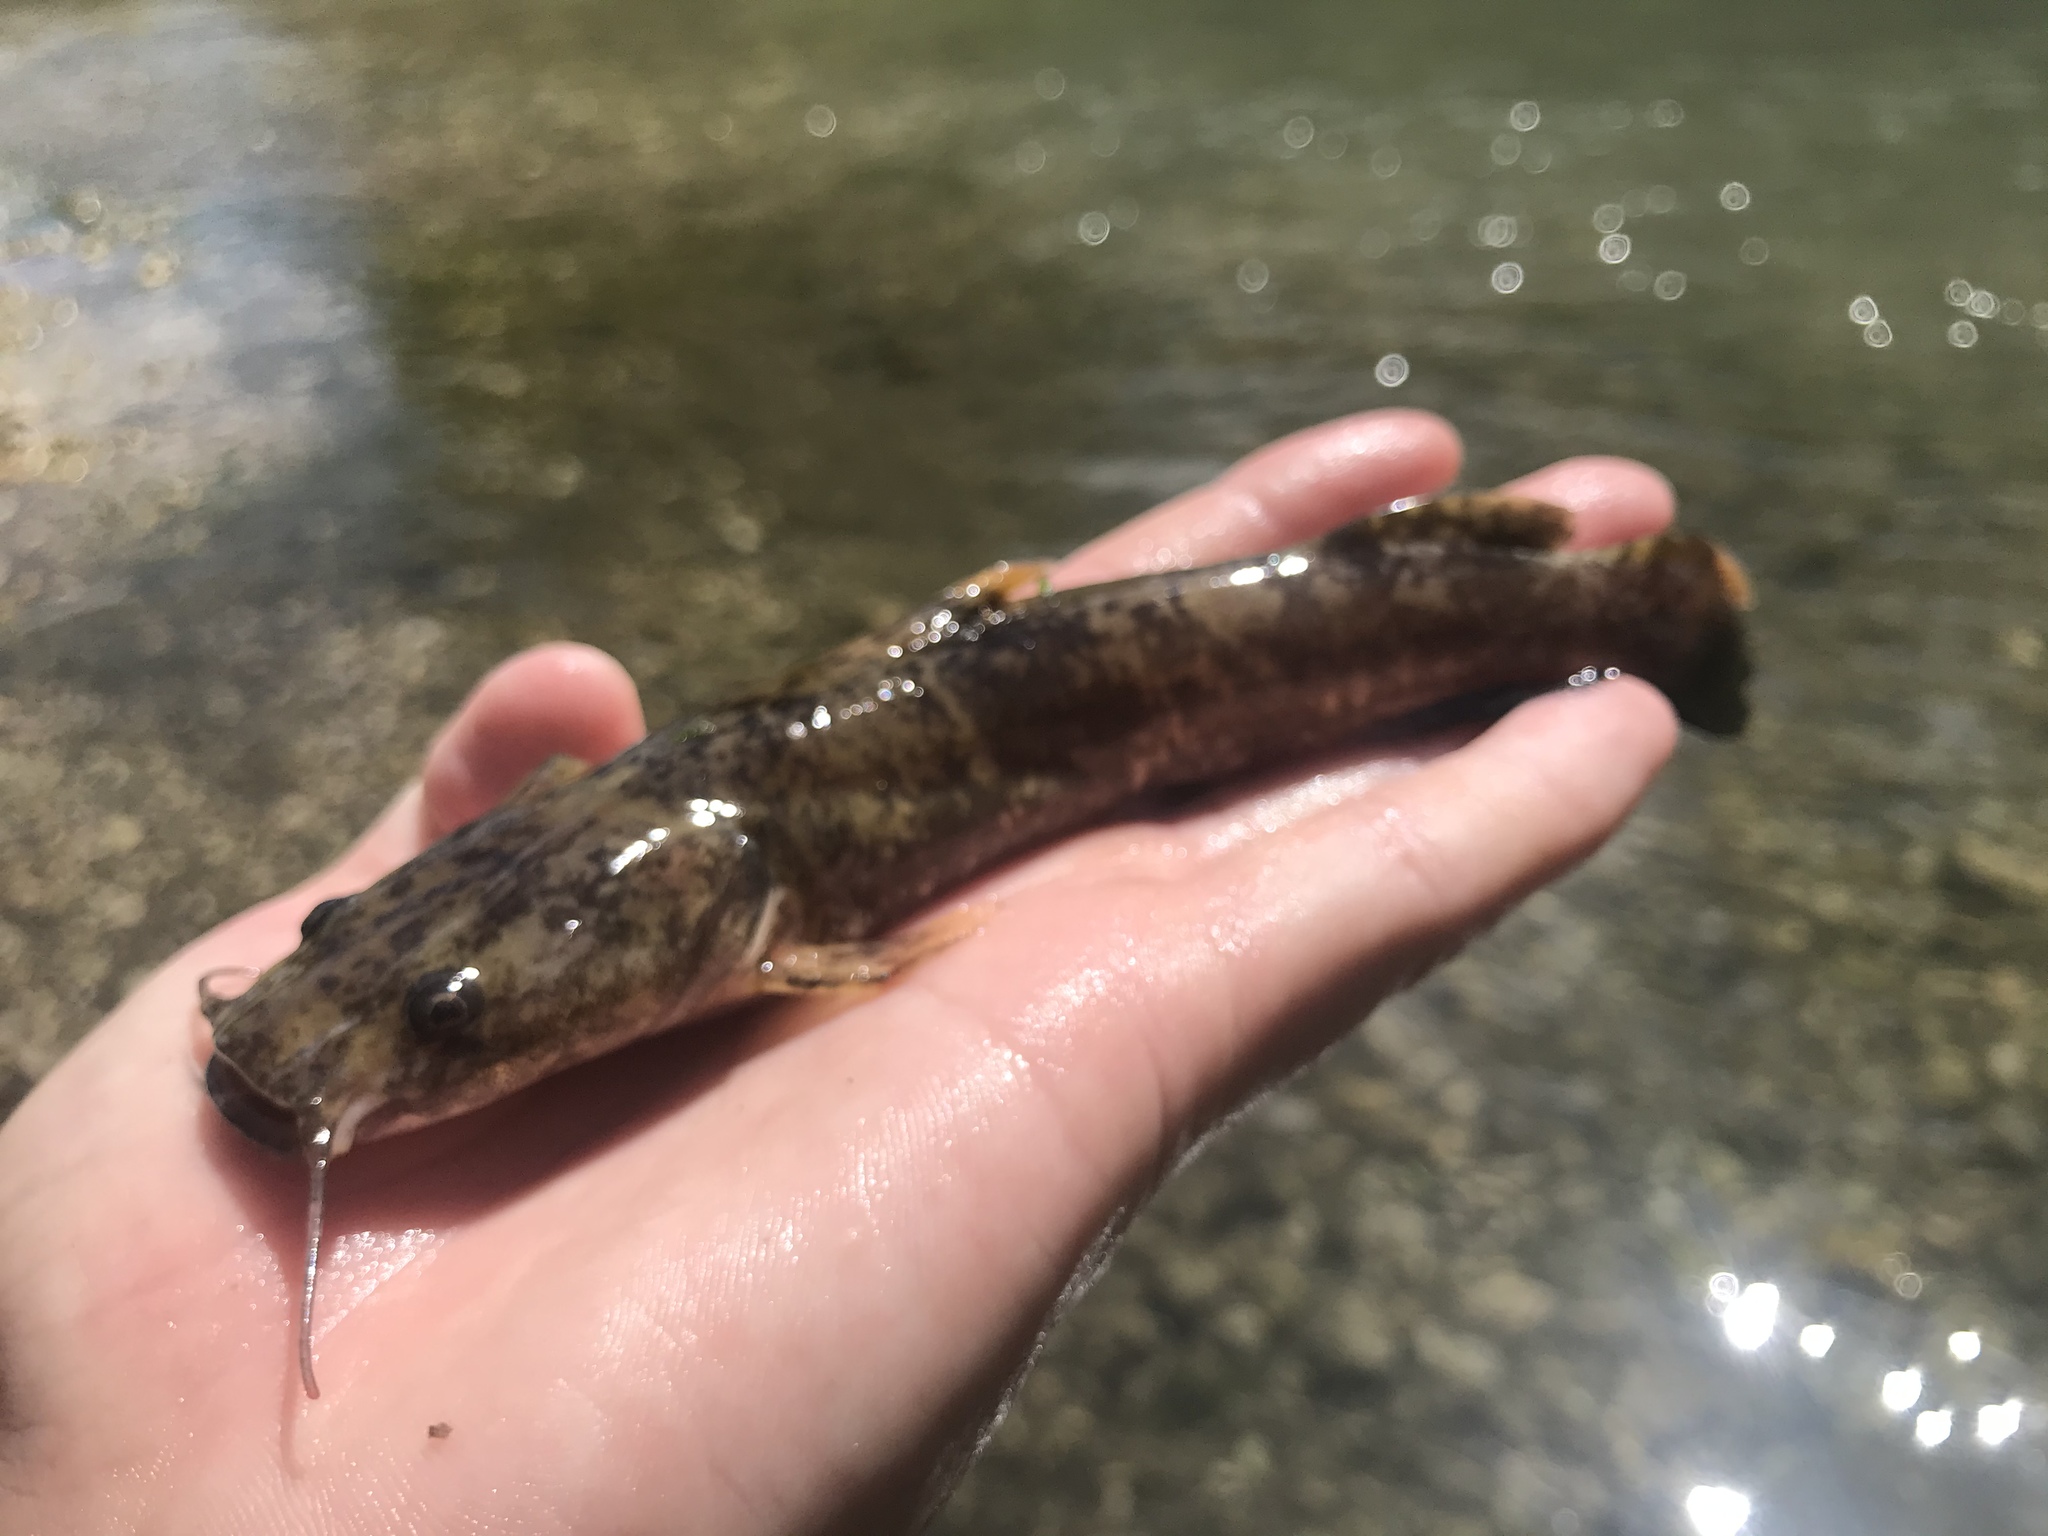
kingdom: Animalia
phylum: Chordata
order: Siluriformes
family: Ictaluridae
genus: Pylodictis
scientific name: Pylodictis olivaris
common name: Flathead catfish
